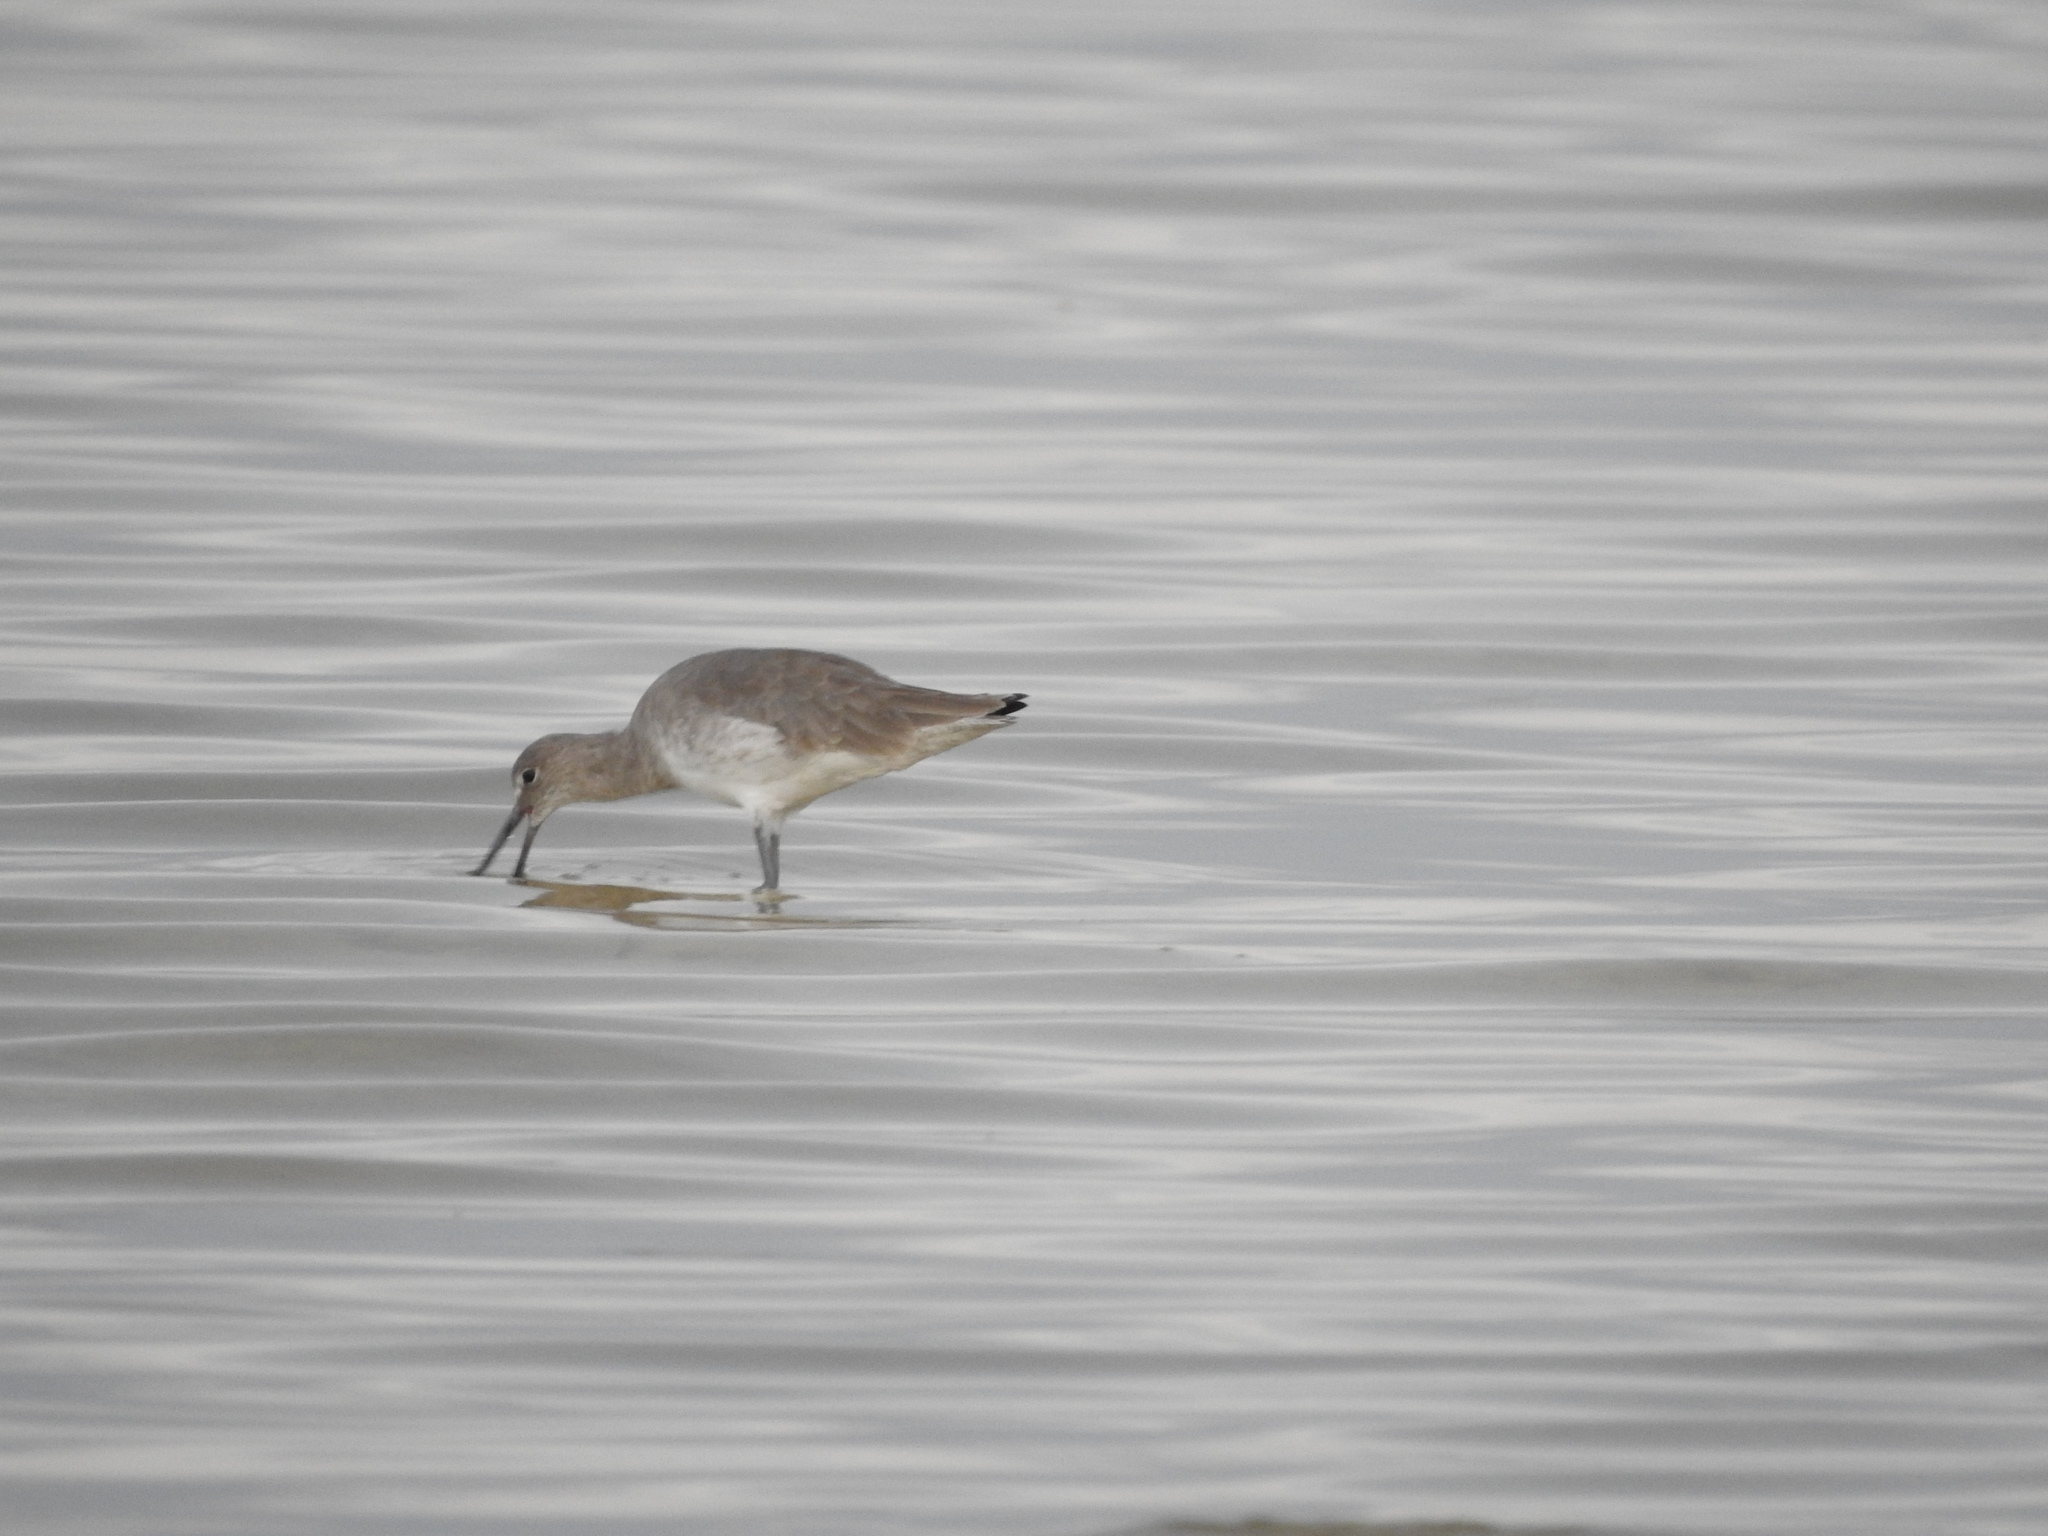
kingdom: Animalia
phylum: Chordata
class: Aves
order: Charadriiformes
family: Scolopacidae
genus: Tringa
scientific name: Tringa semipalmata
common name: Willet
